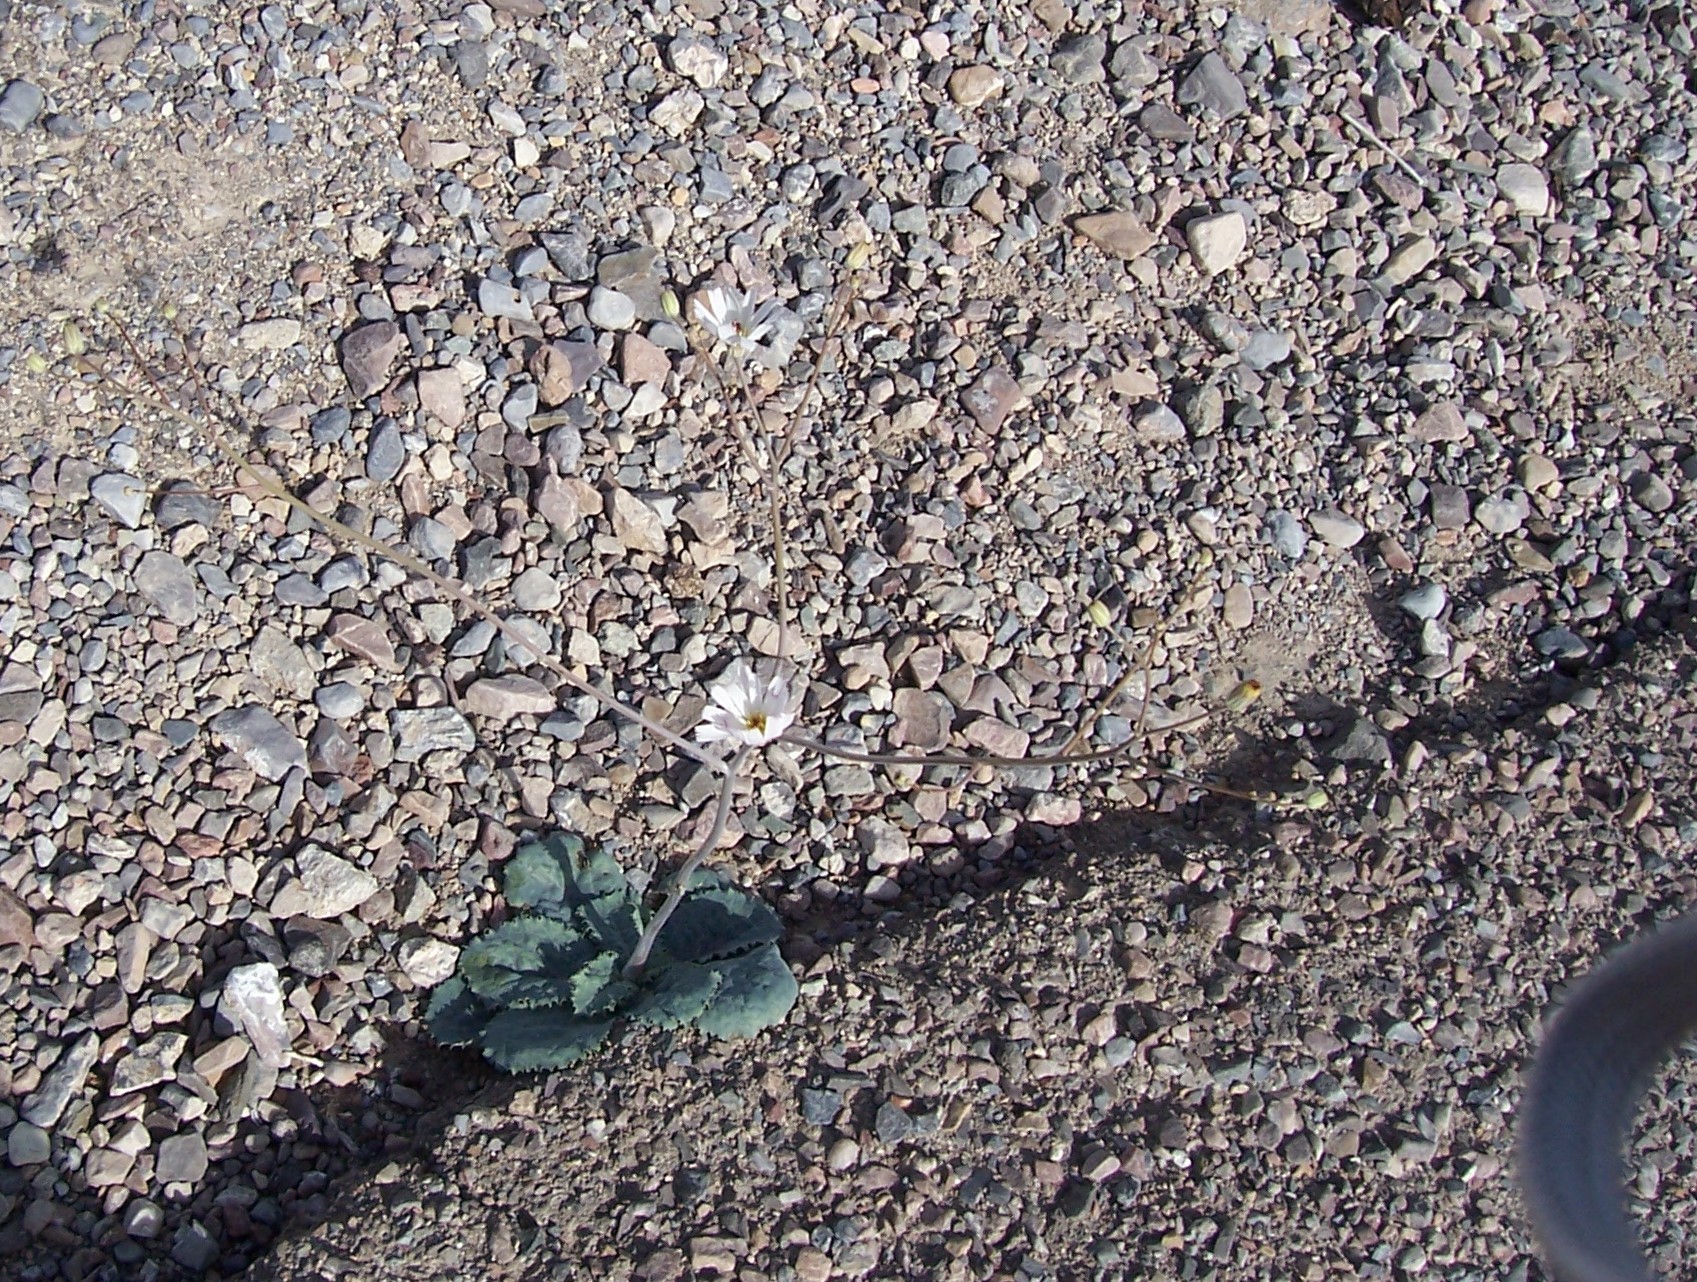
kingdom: Plantae
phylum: Tracheophyta
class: Magnoliopsida
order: Asterales
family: Asteraceae
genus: Atrichoseris
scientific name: Atrichoseris platyphylla
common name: Tobaccoweed
